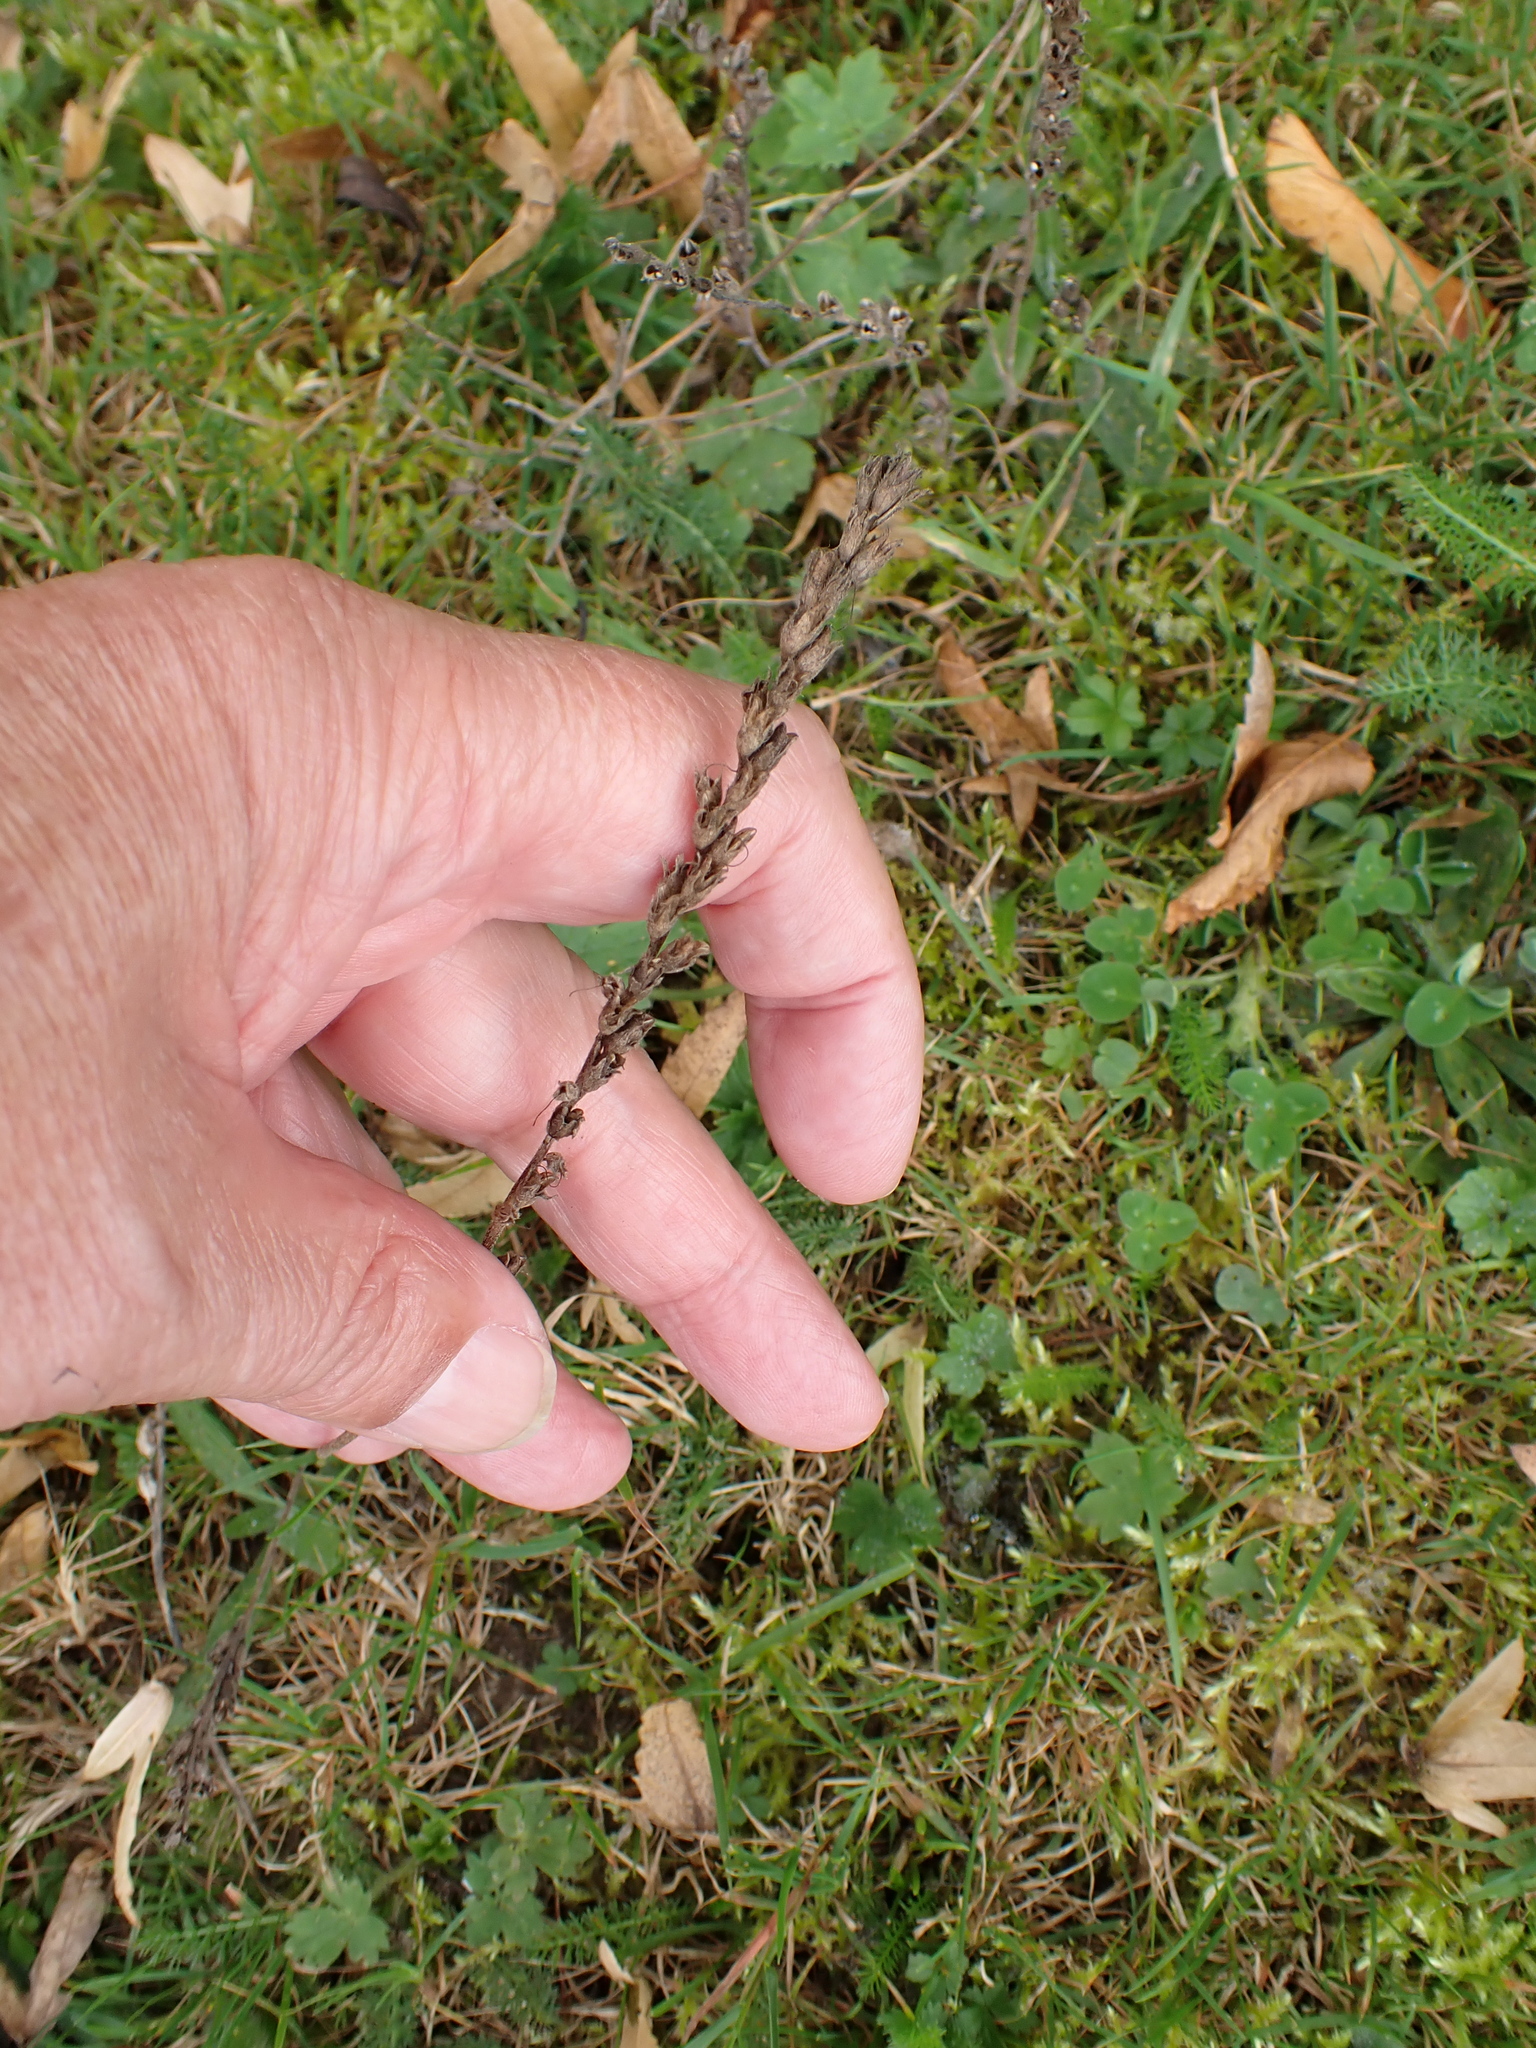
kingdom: Plantae
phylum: Tracheophyta
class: Magnoliopsida
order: Lamiales
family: Orobanchaceae
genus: Odontites
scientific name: Odontites vulgaris
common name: Broomrape
